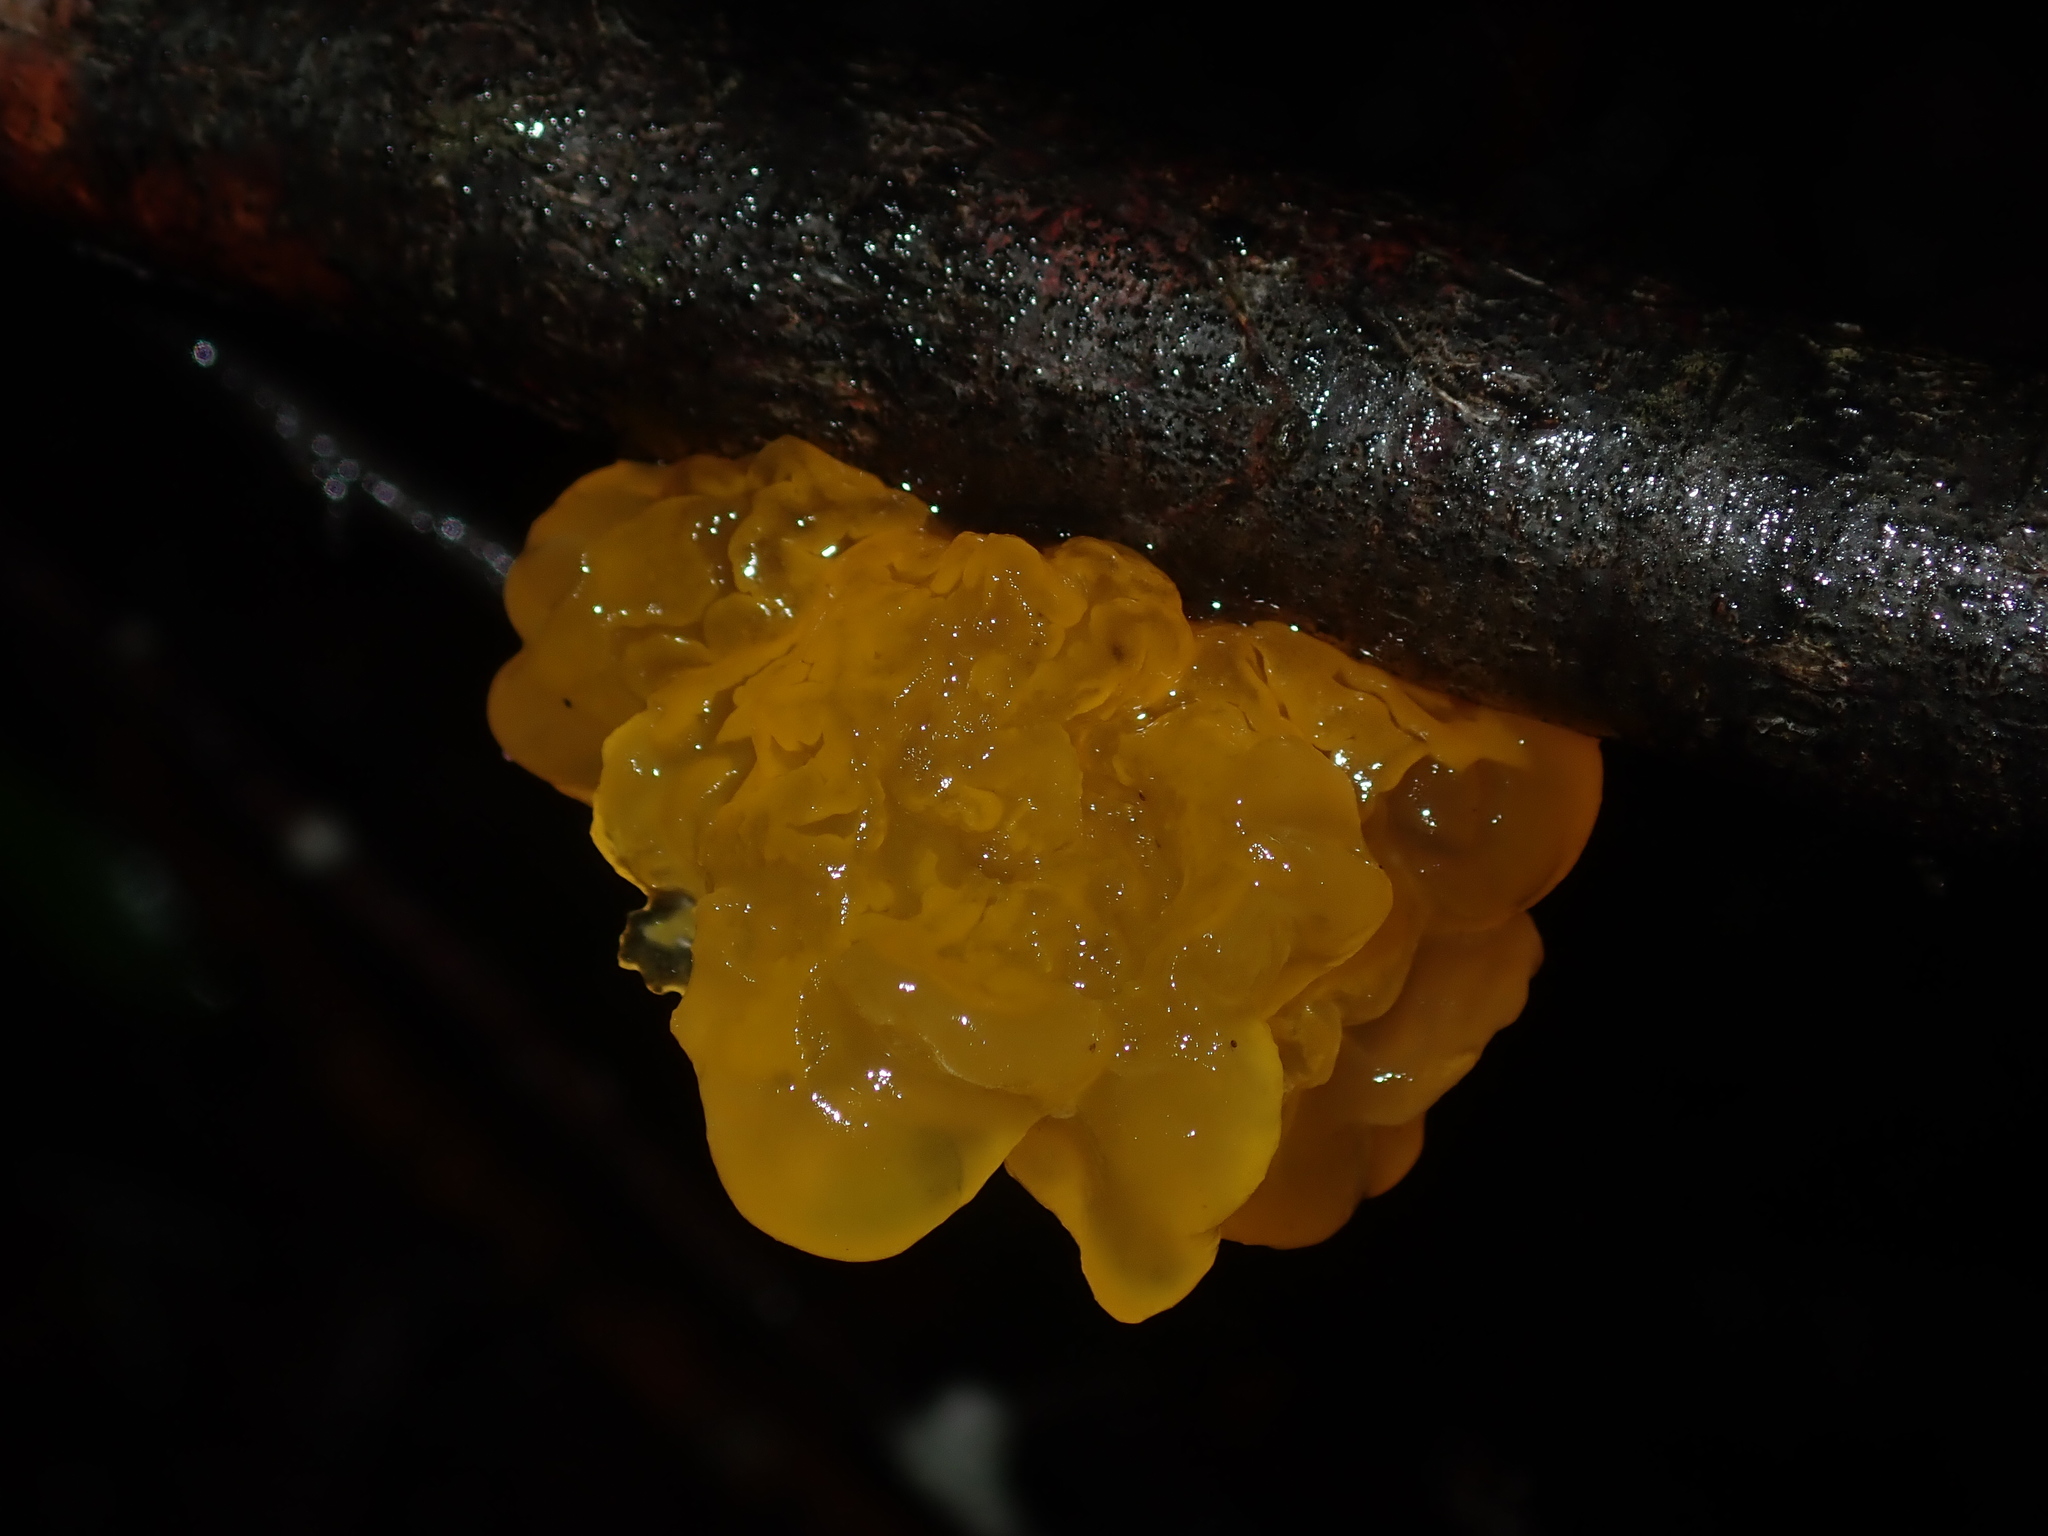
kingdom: Fungi
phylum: Basidiomycota
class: Tremellomycetes
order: Tremellales
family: Tremellaceae
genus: Tremella
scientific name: Tremella mesenterica
